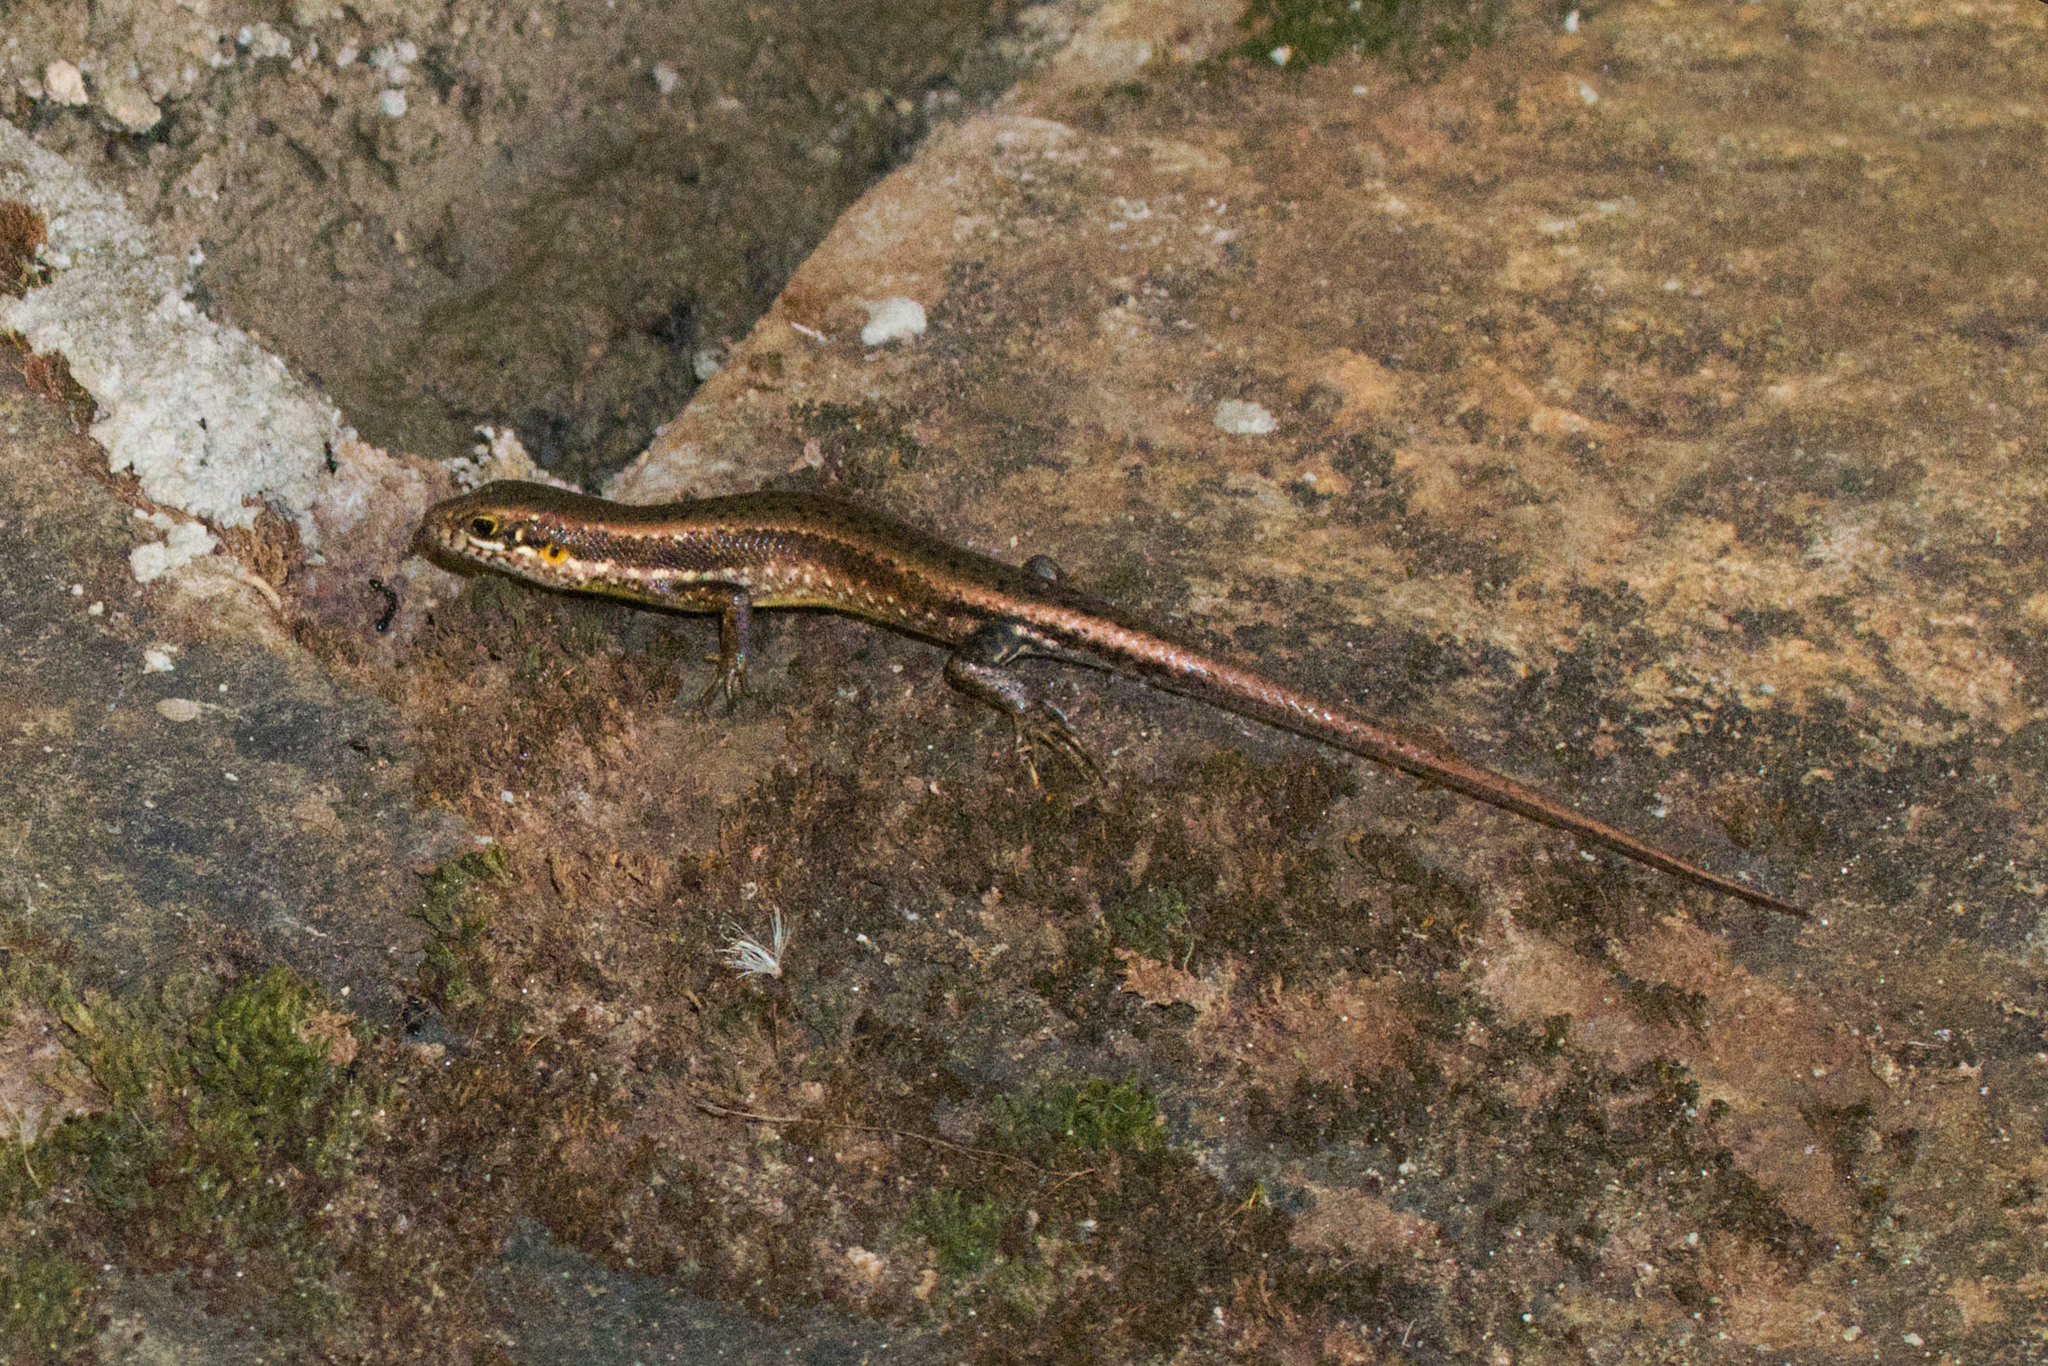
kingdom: Animalia
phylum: Chordata
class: Squamata
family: Scincidae
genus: Trachylepis
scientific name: Trachylepis maculilabris
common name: Speckle-lipped mabuya
